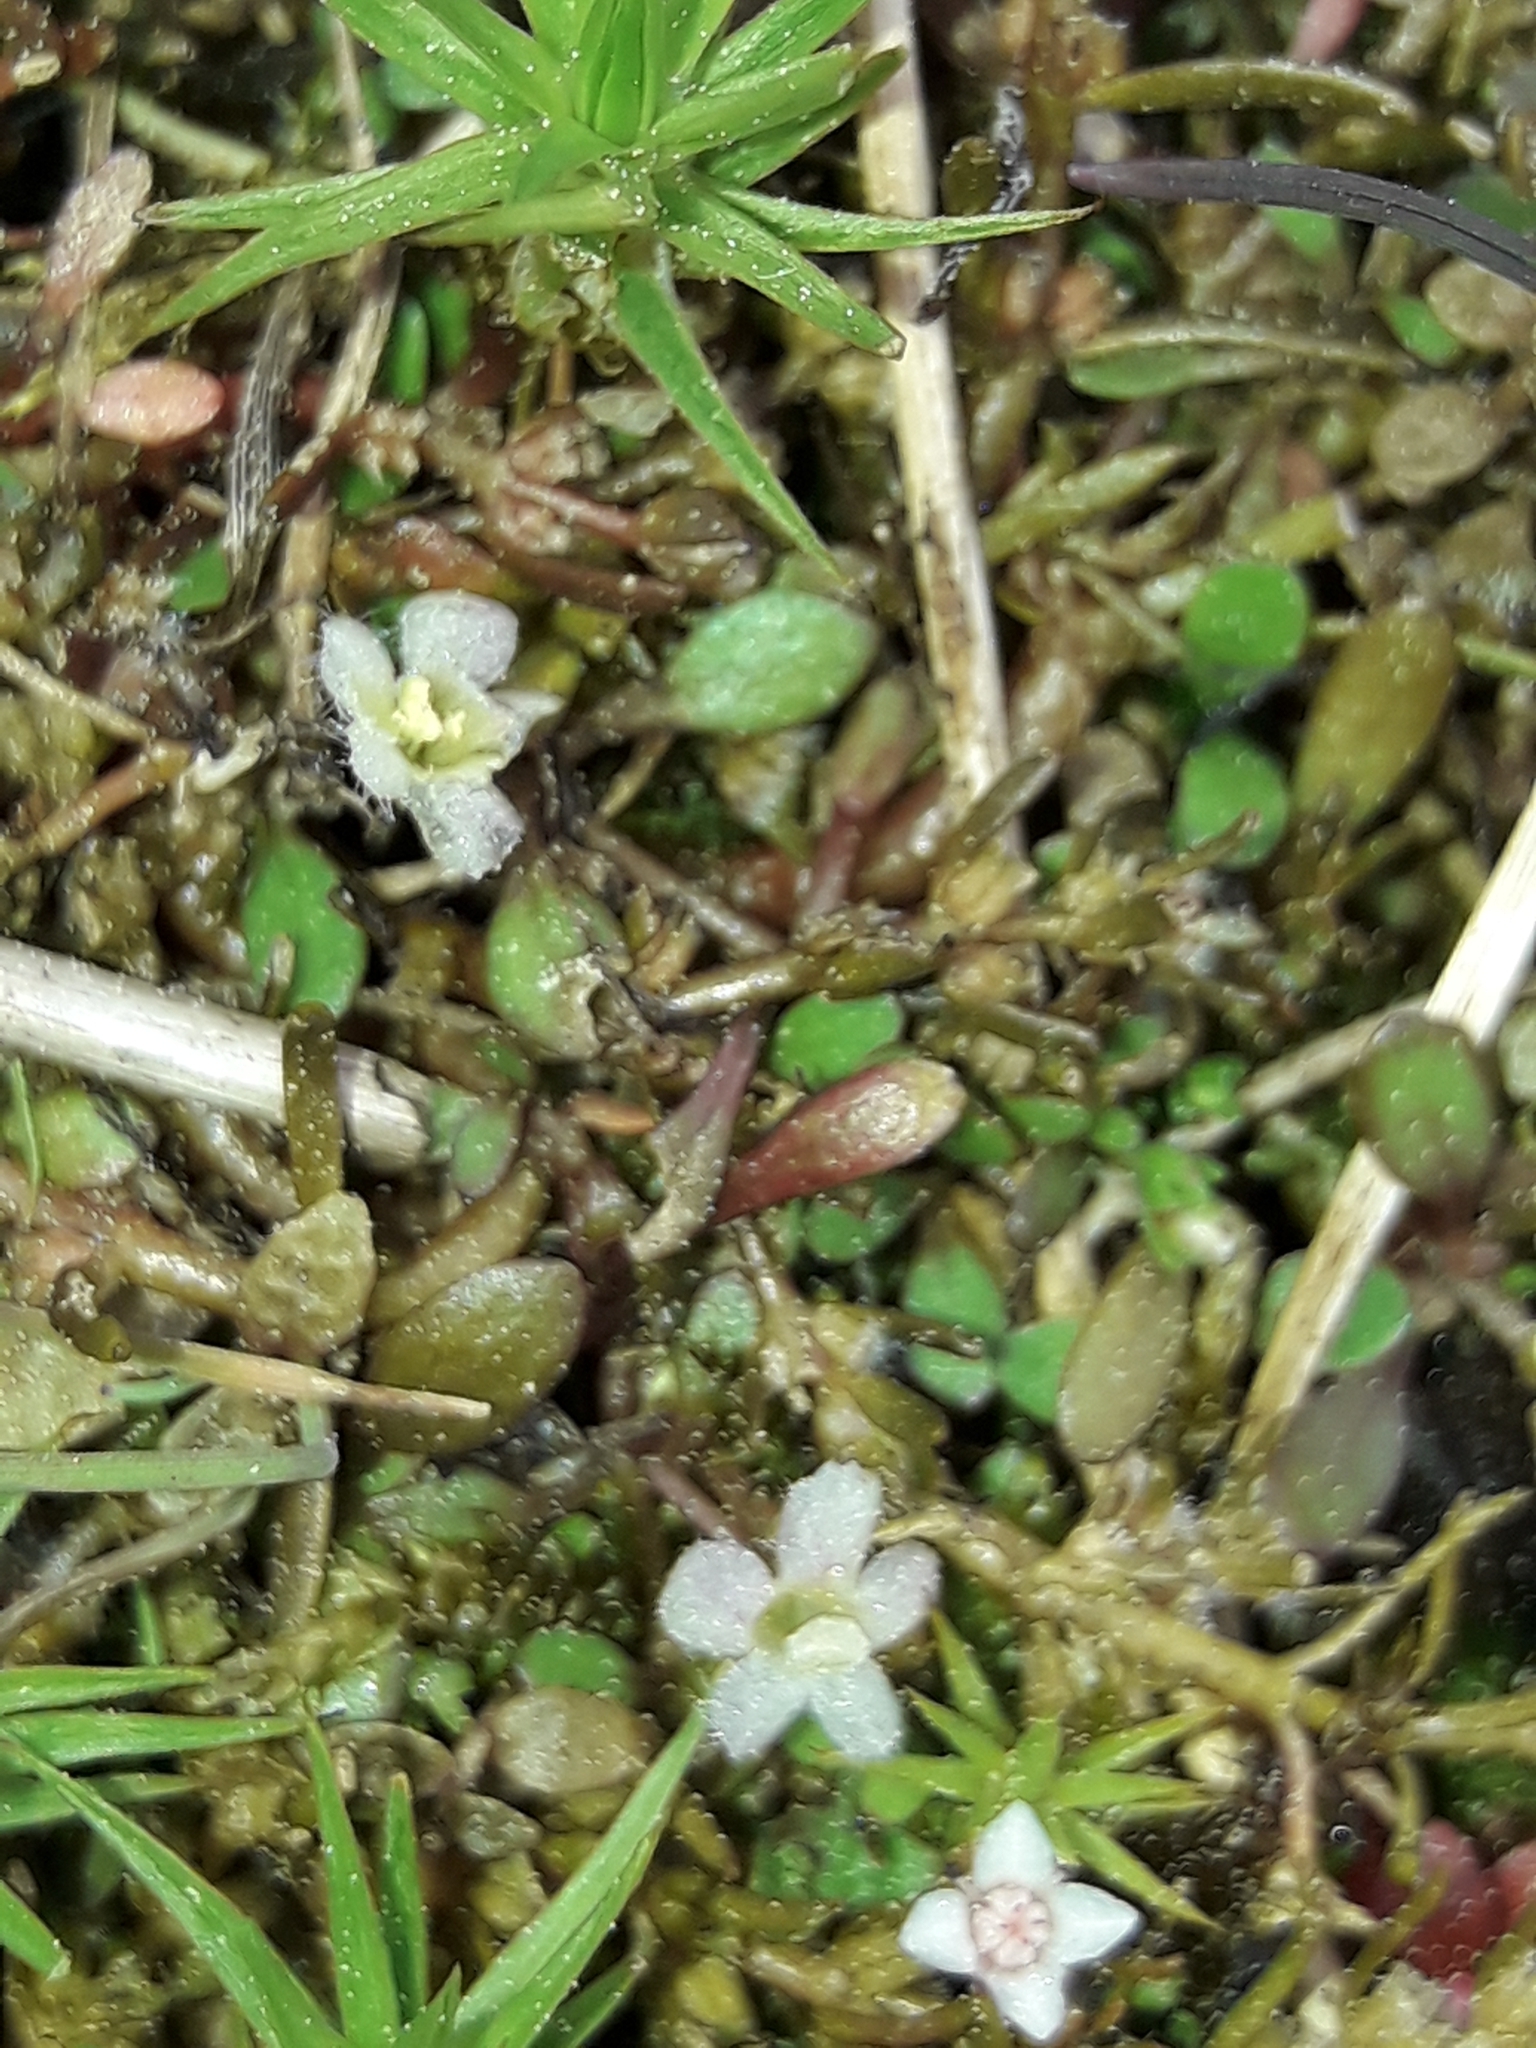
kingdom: Plantae
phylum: Tracheophyta
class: Magnoliopsida
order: Lamiales
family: Phrymaceae
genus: Glossostigma
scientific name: Glossostigma elatinoides
